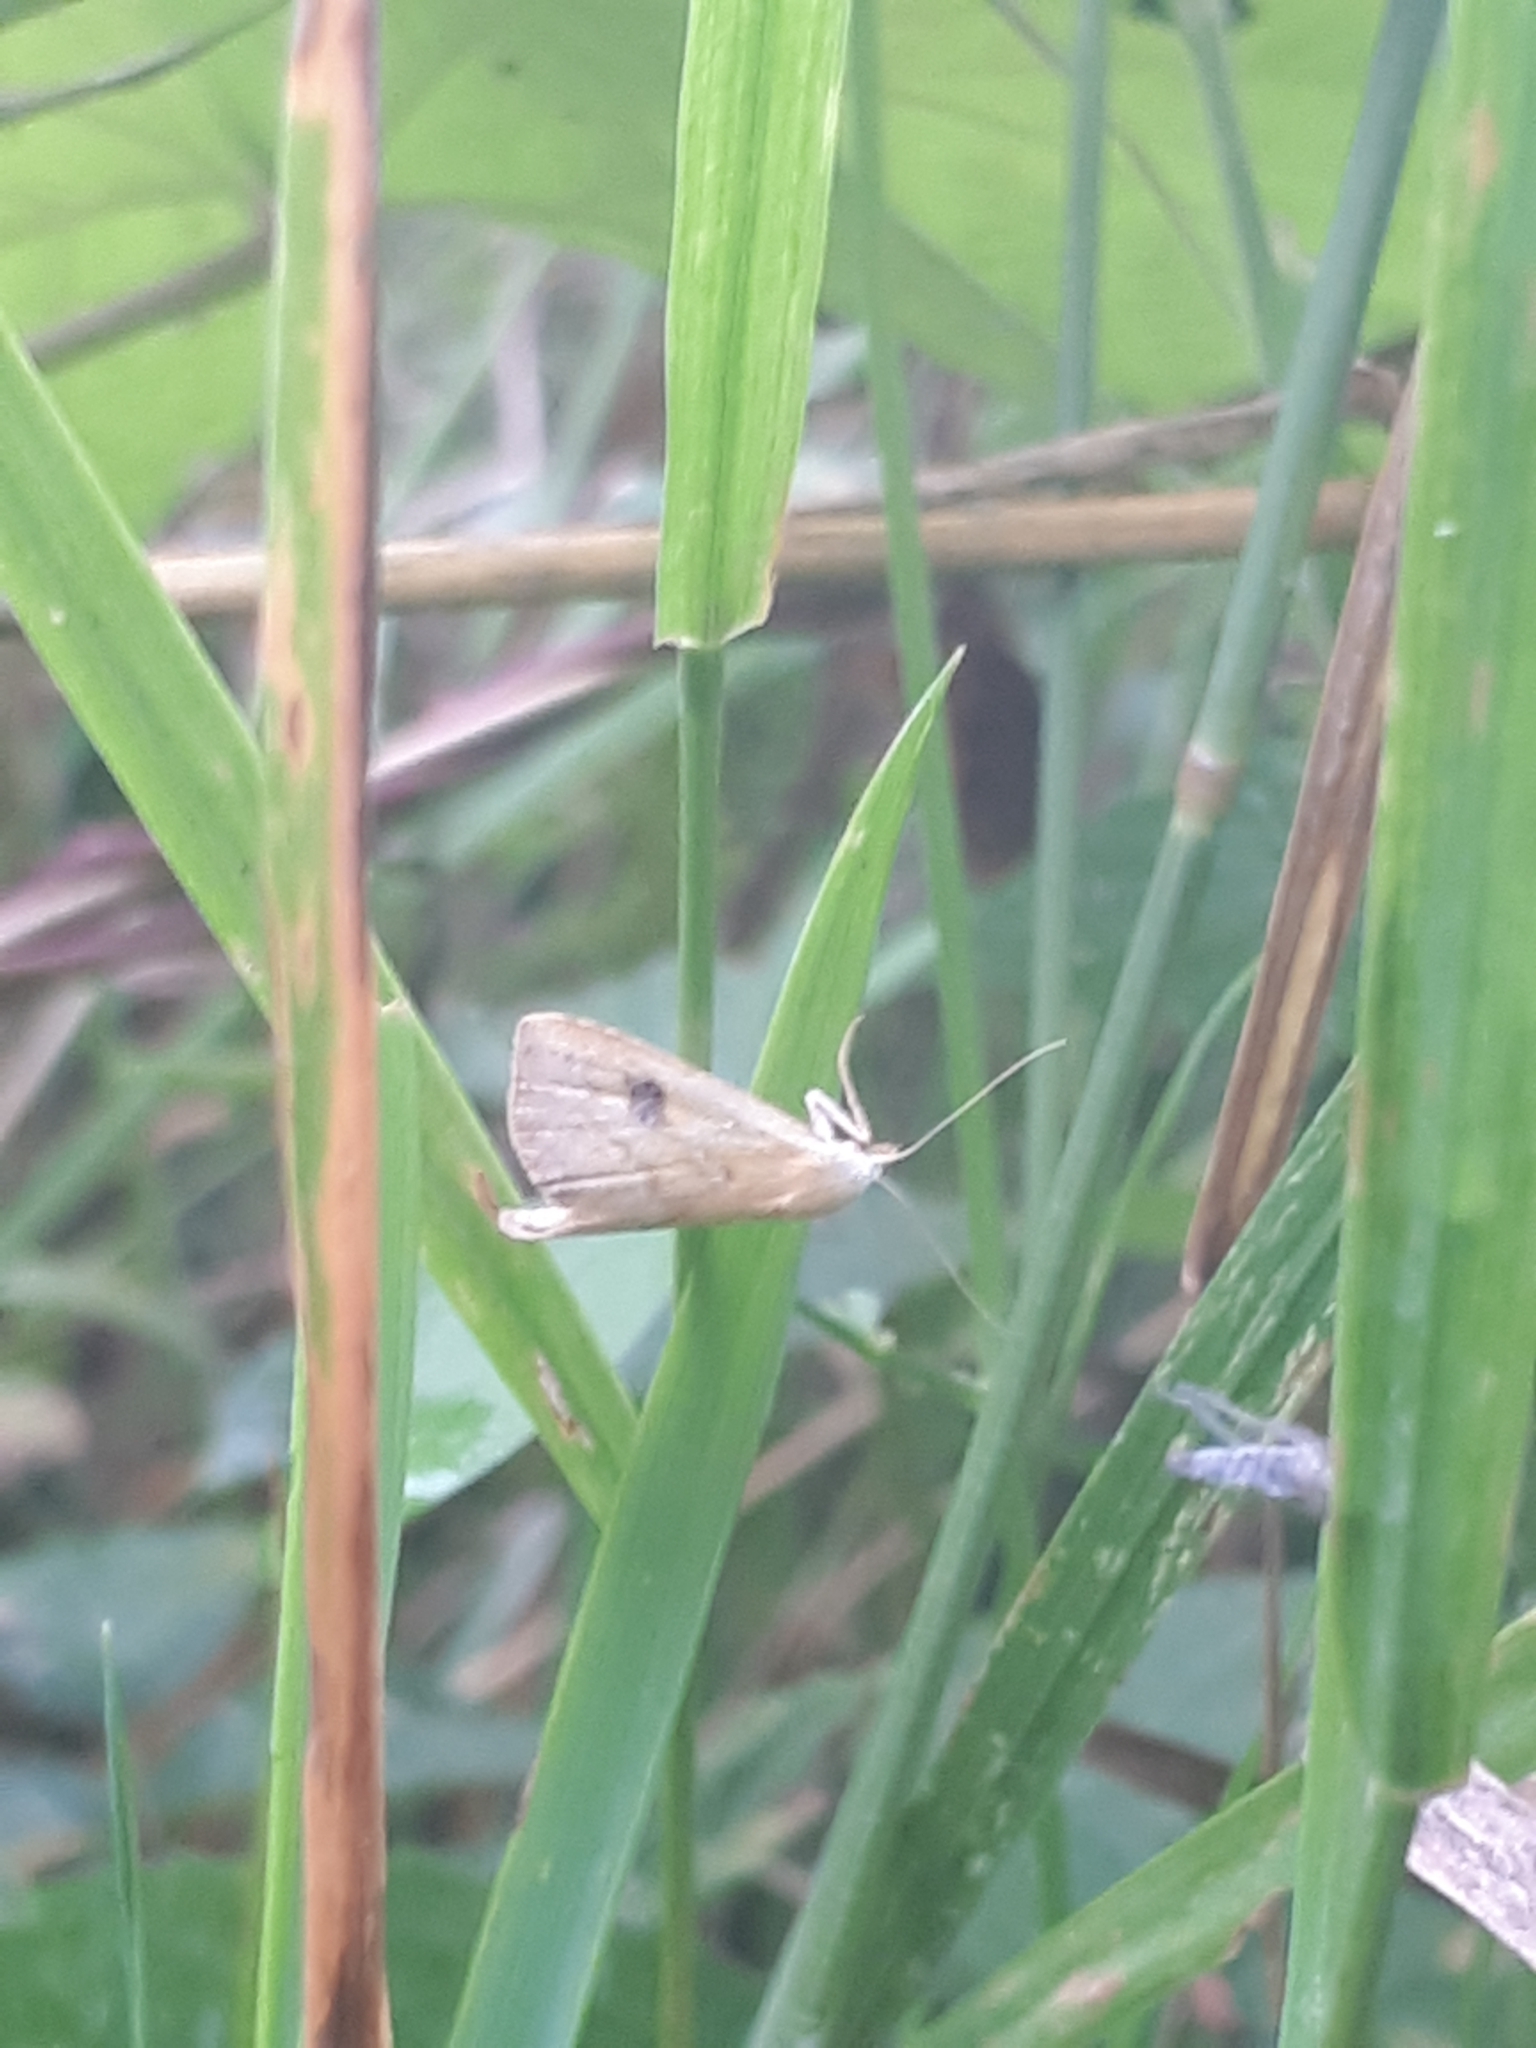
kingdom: Animalia
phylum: Arthropoda
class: Insecta
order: Lepidoptera
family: Erebidae
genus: Rivula
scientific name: Rivula sericealis
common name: Straw dot
